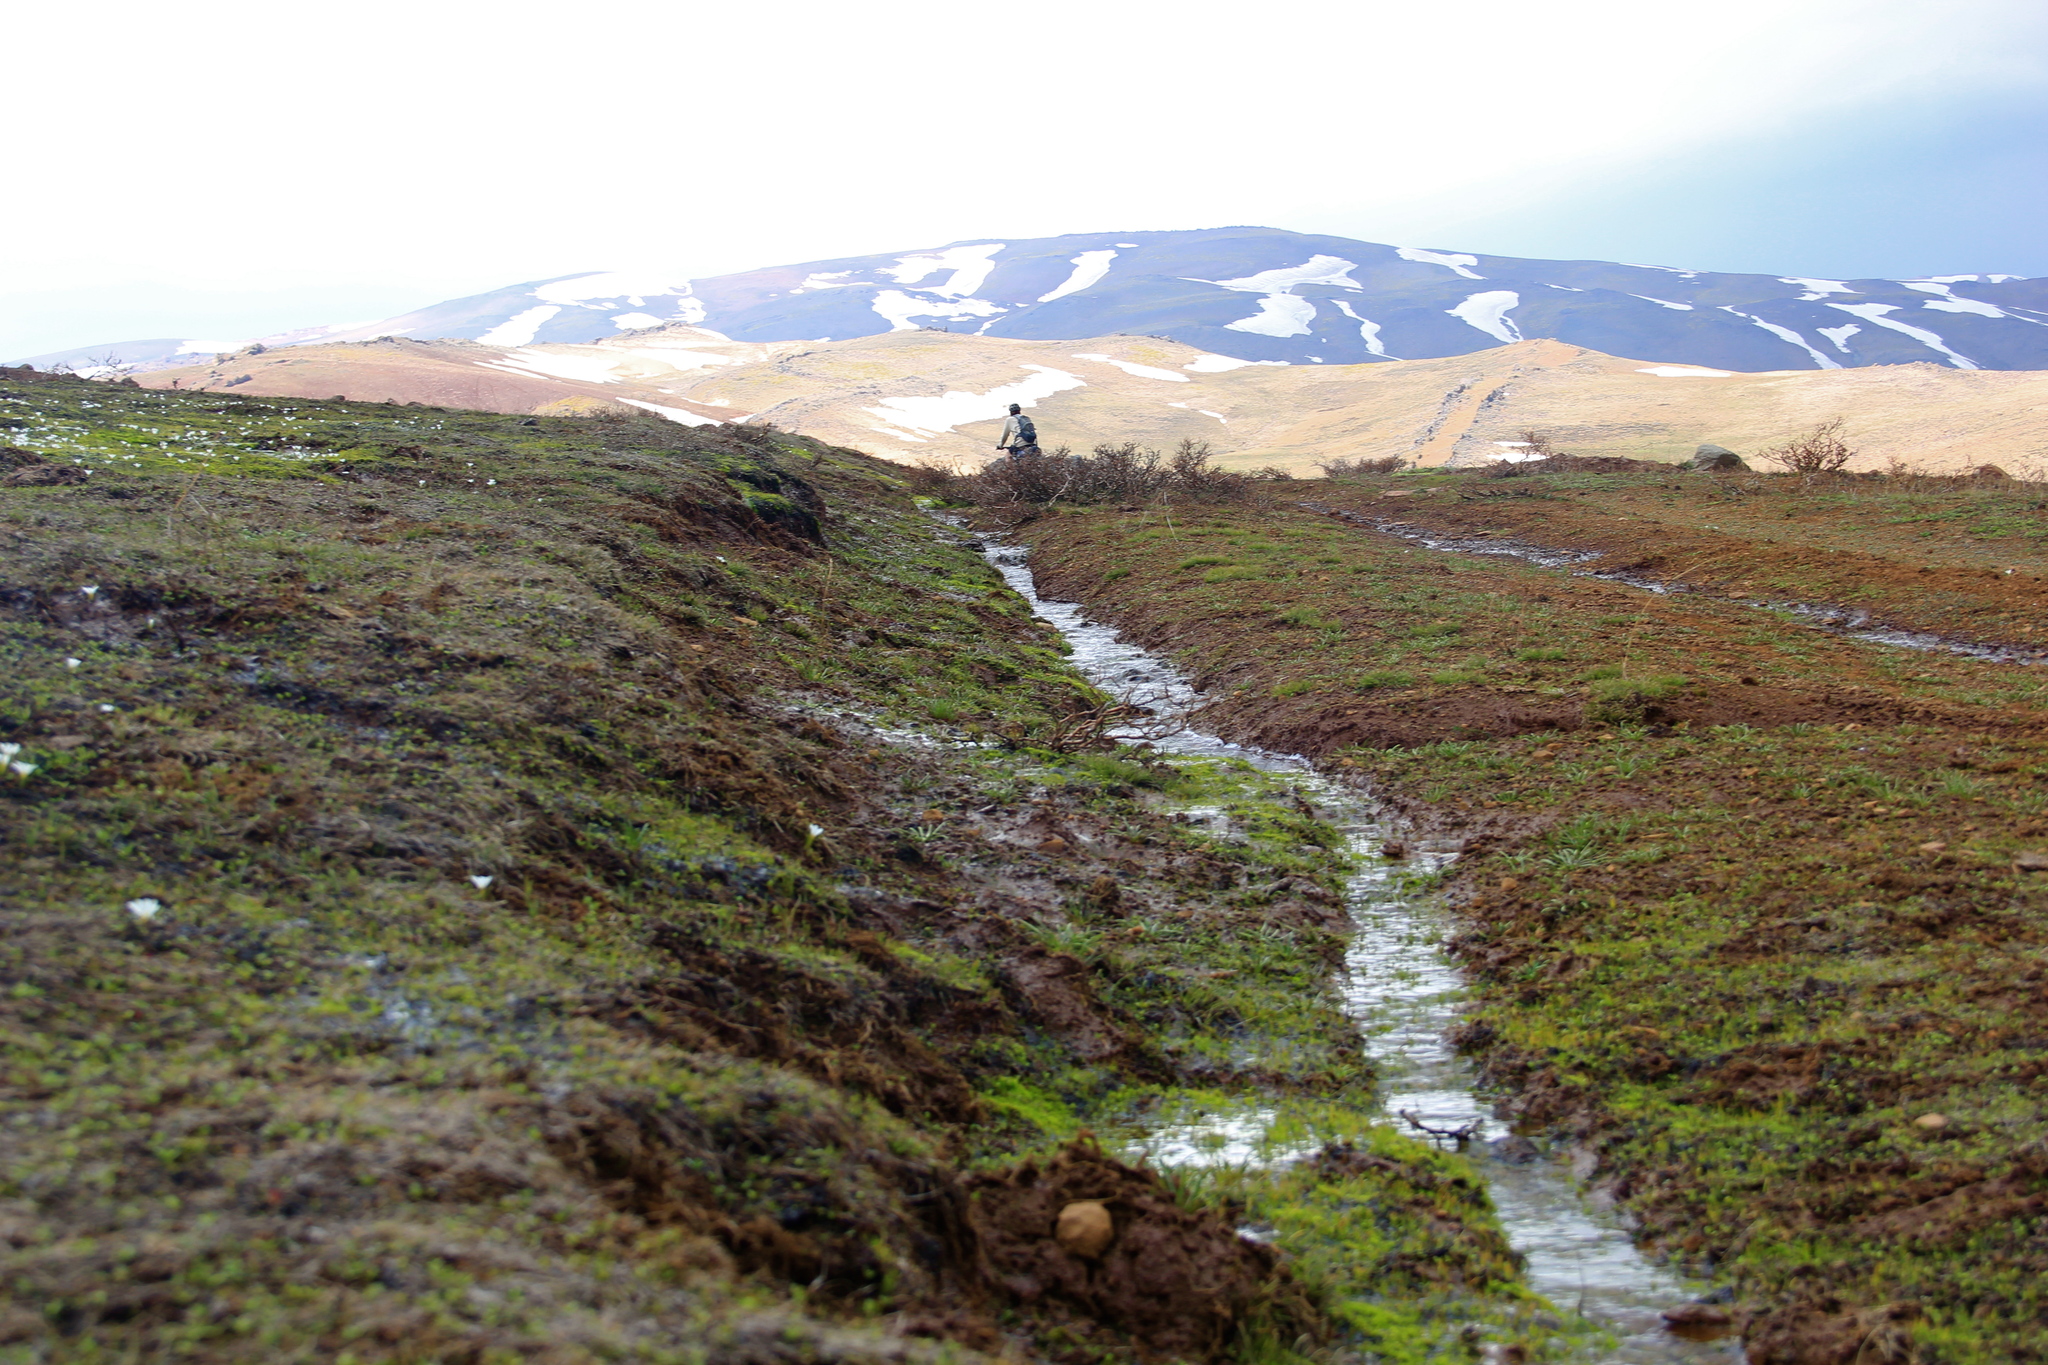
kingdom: Plantae
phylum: Tracheophyta
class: Liliopsida
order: Asparagales
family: Amaryllidaceae
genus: Tristagma
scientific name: Tristagma sessile
